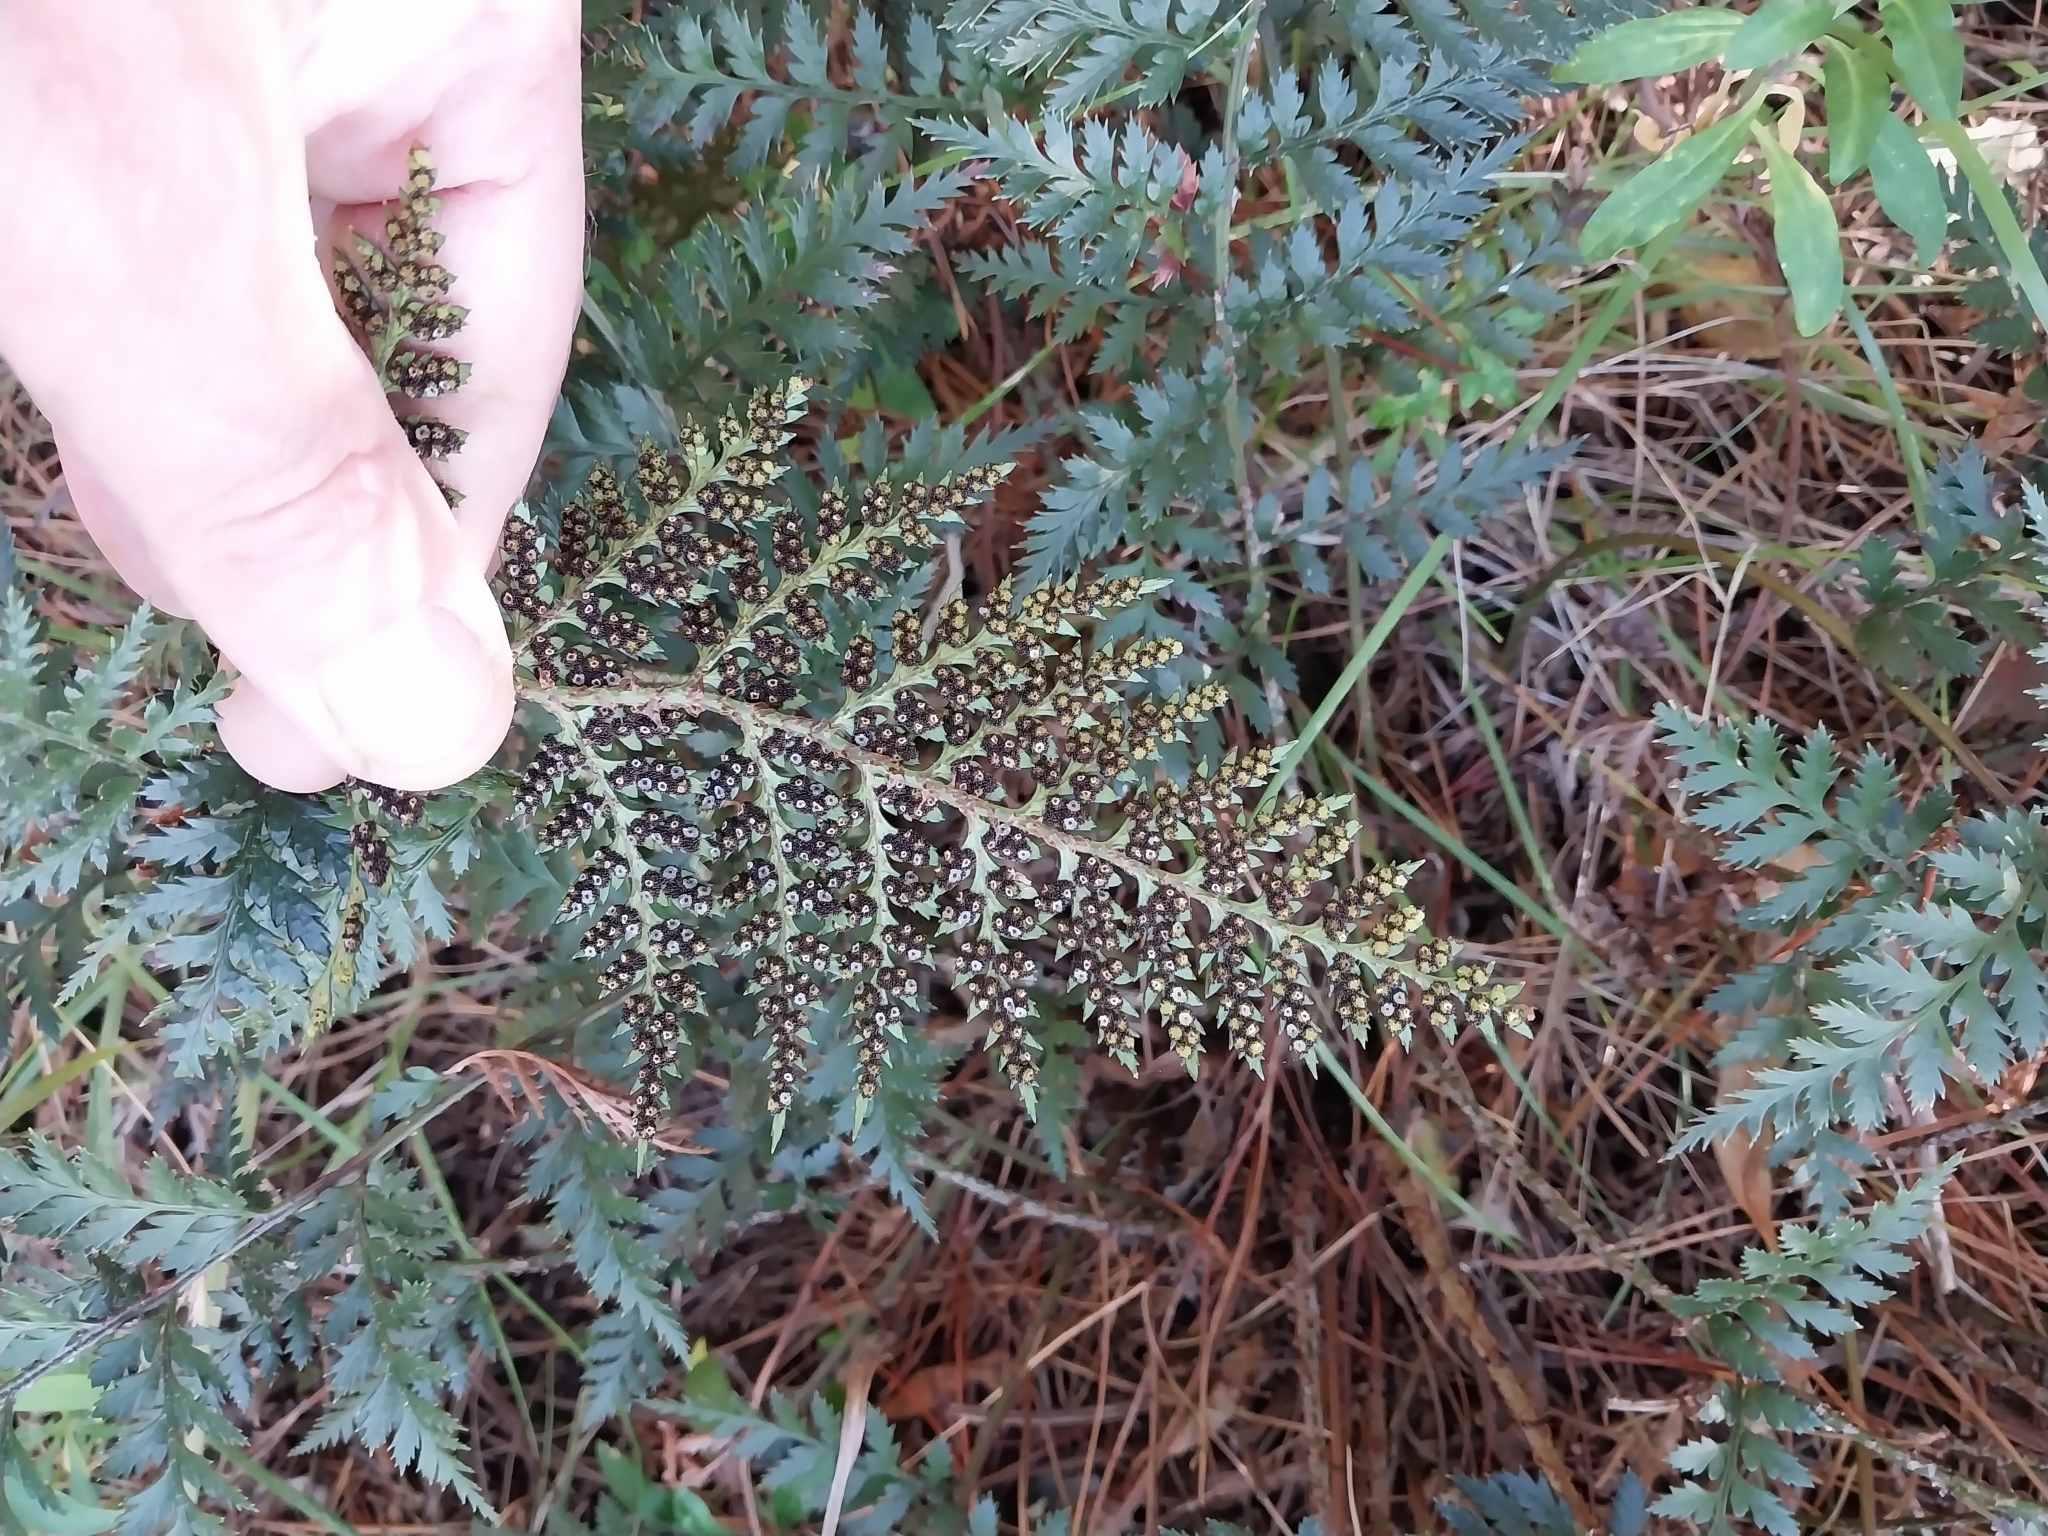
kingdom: Plantae
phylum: Tracheophyta
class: Polypodiopsida
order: Polypodiales
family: Dryopteridaceae
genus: Polystichum
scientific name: Polystichum oculatum
